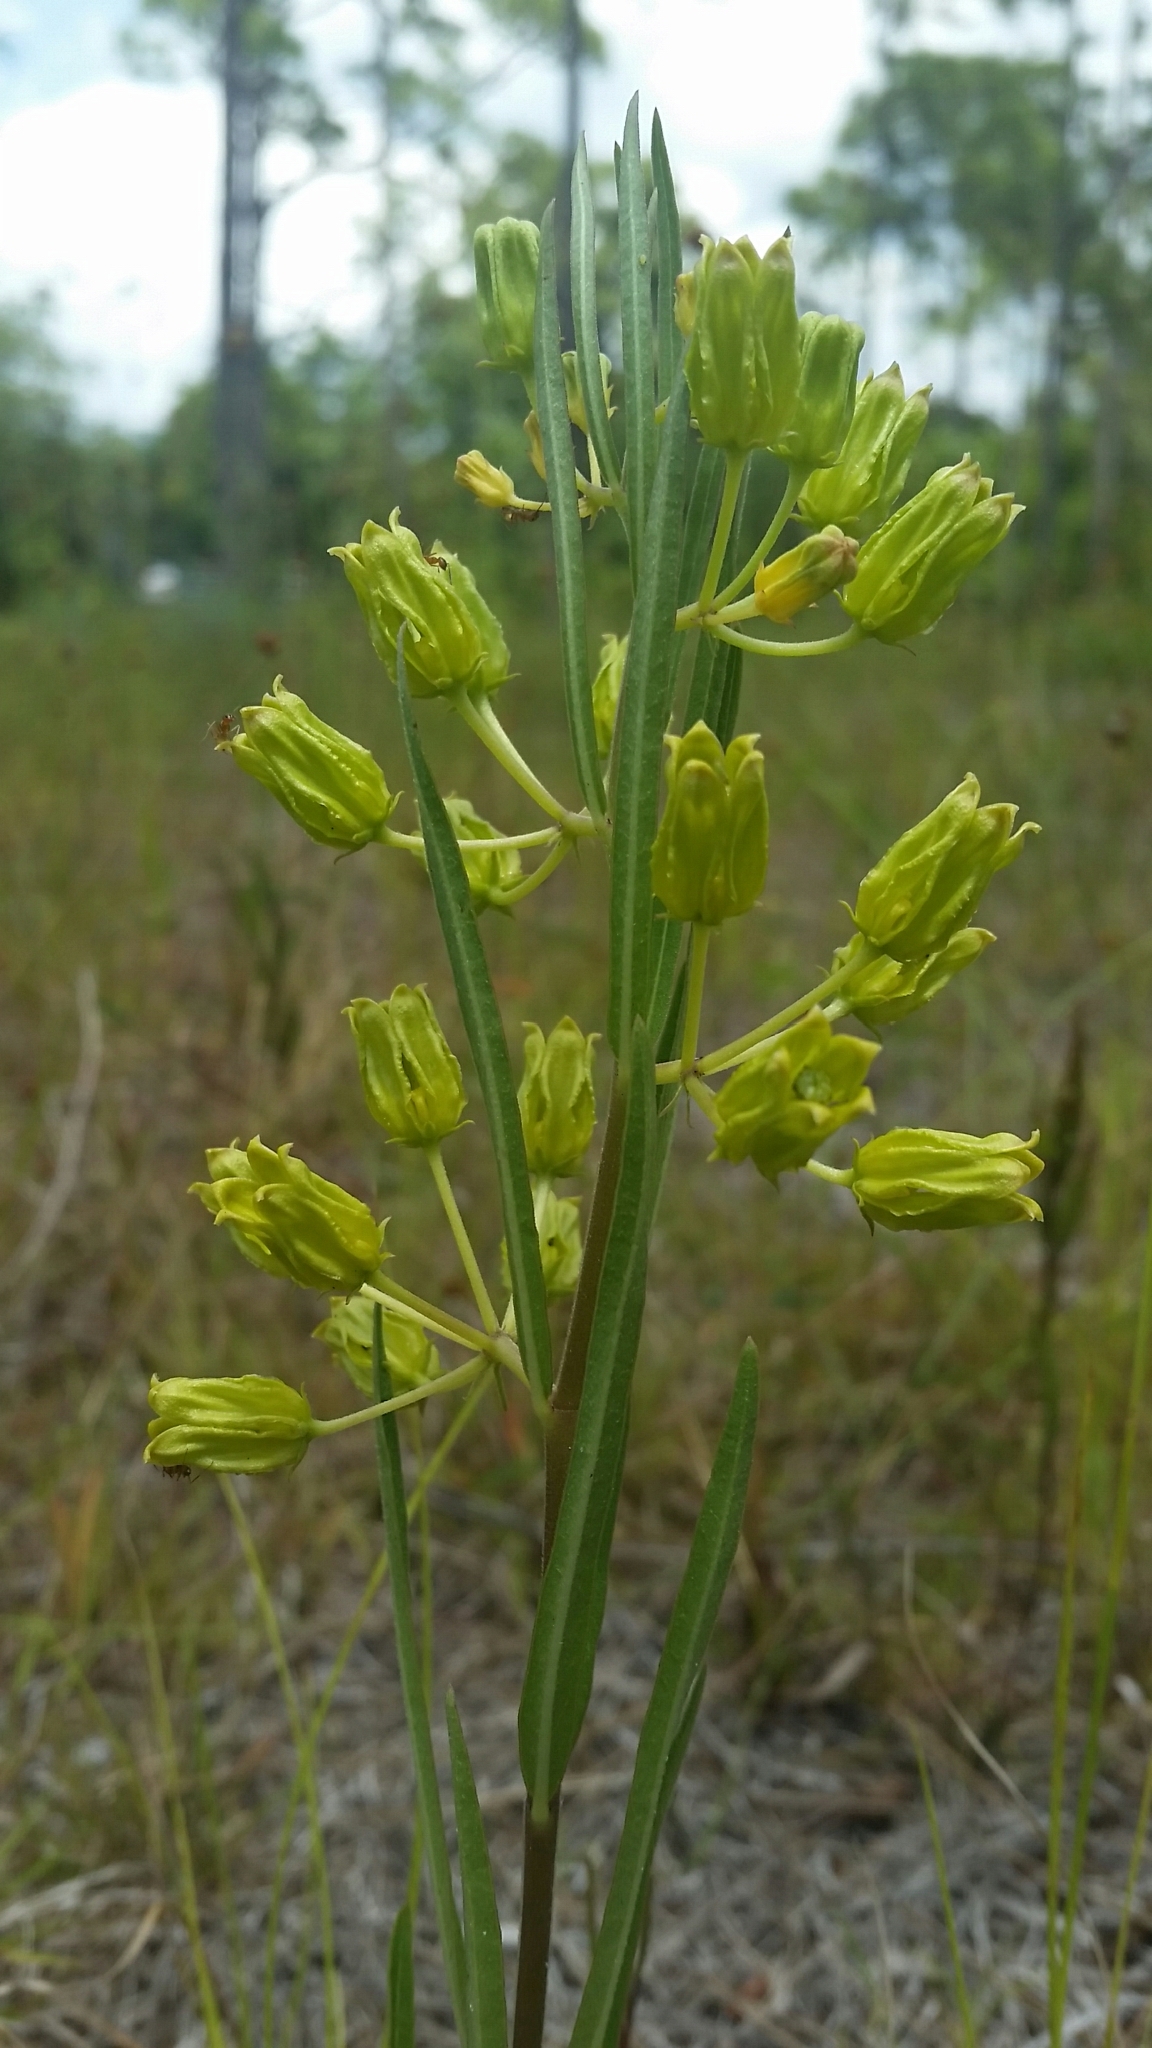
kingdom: Plantae
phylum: Tracheophyta
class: Magnoliopsida
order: Gentianales
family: Apocynaceae
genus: Asclepias
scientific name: Asclepias pedicellata
